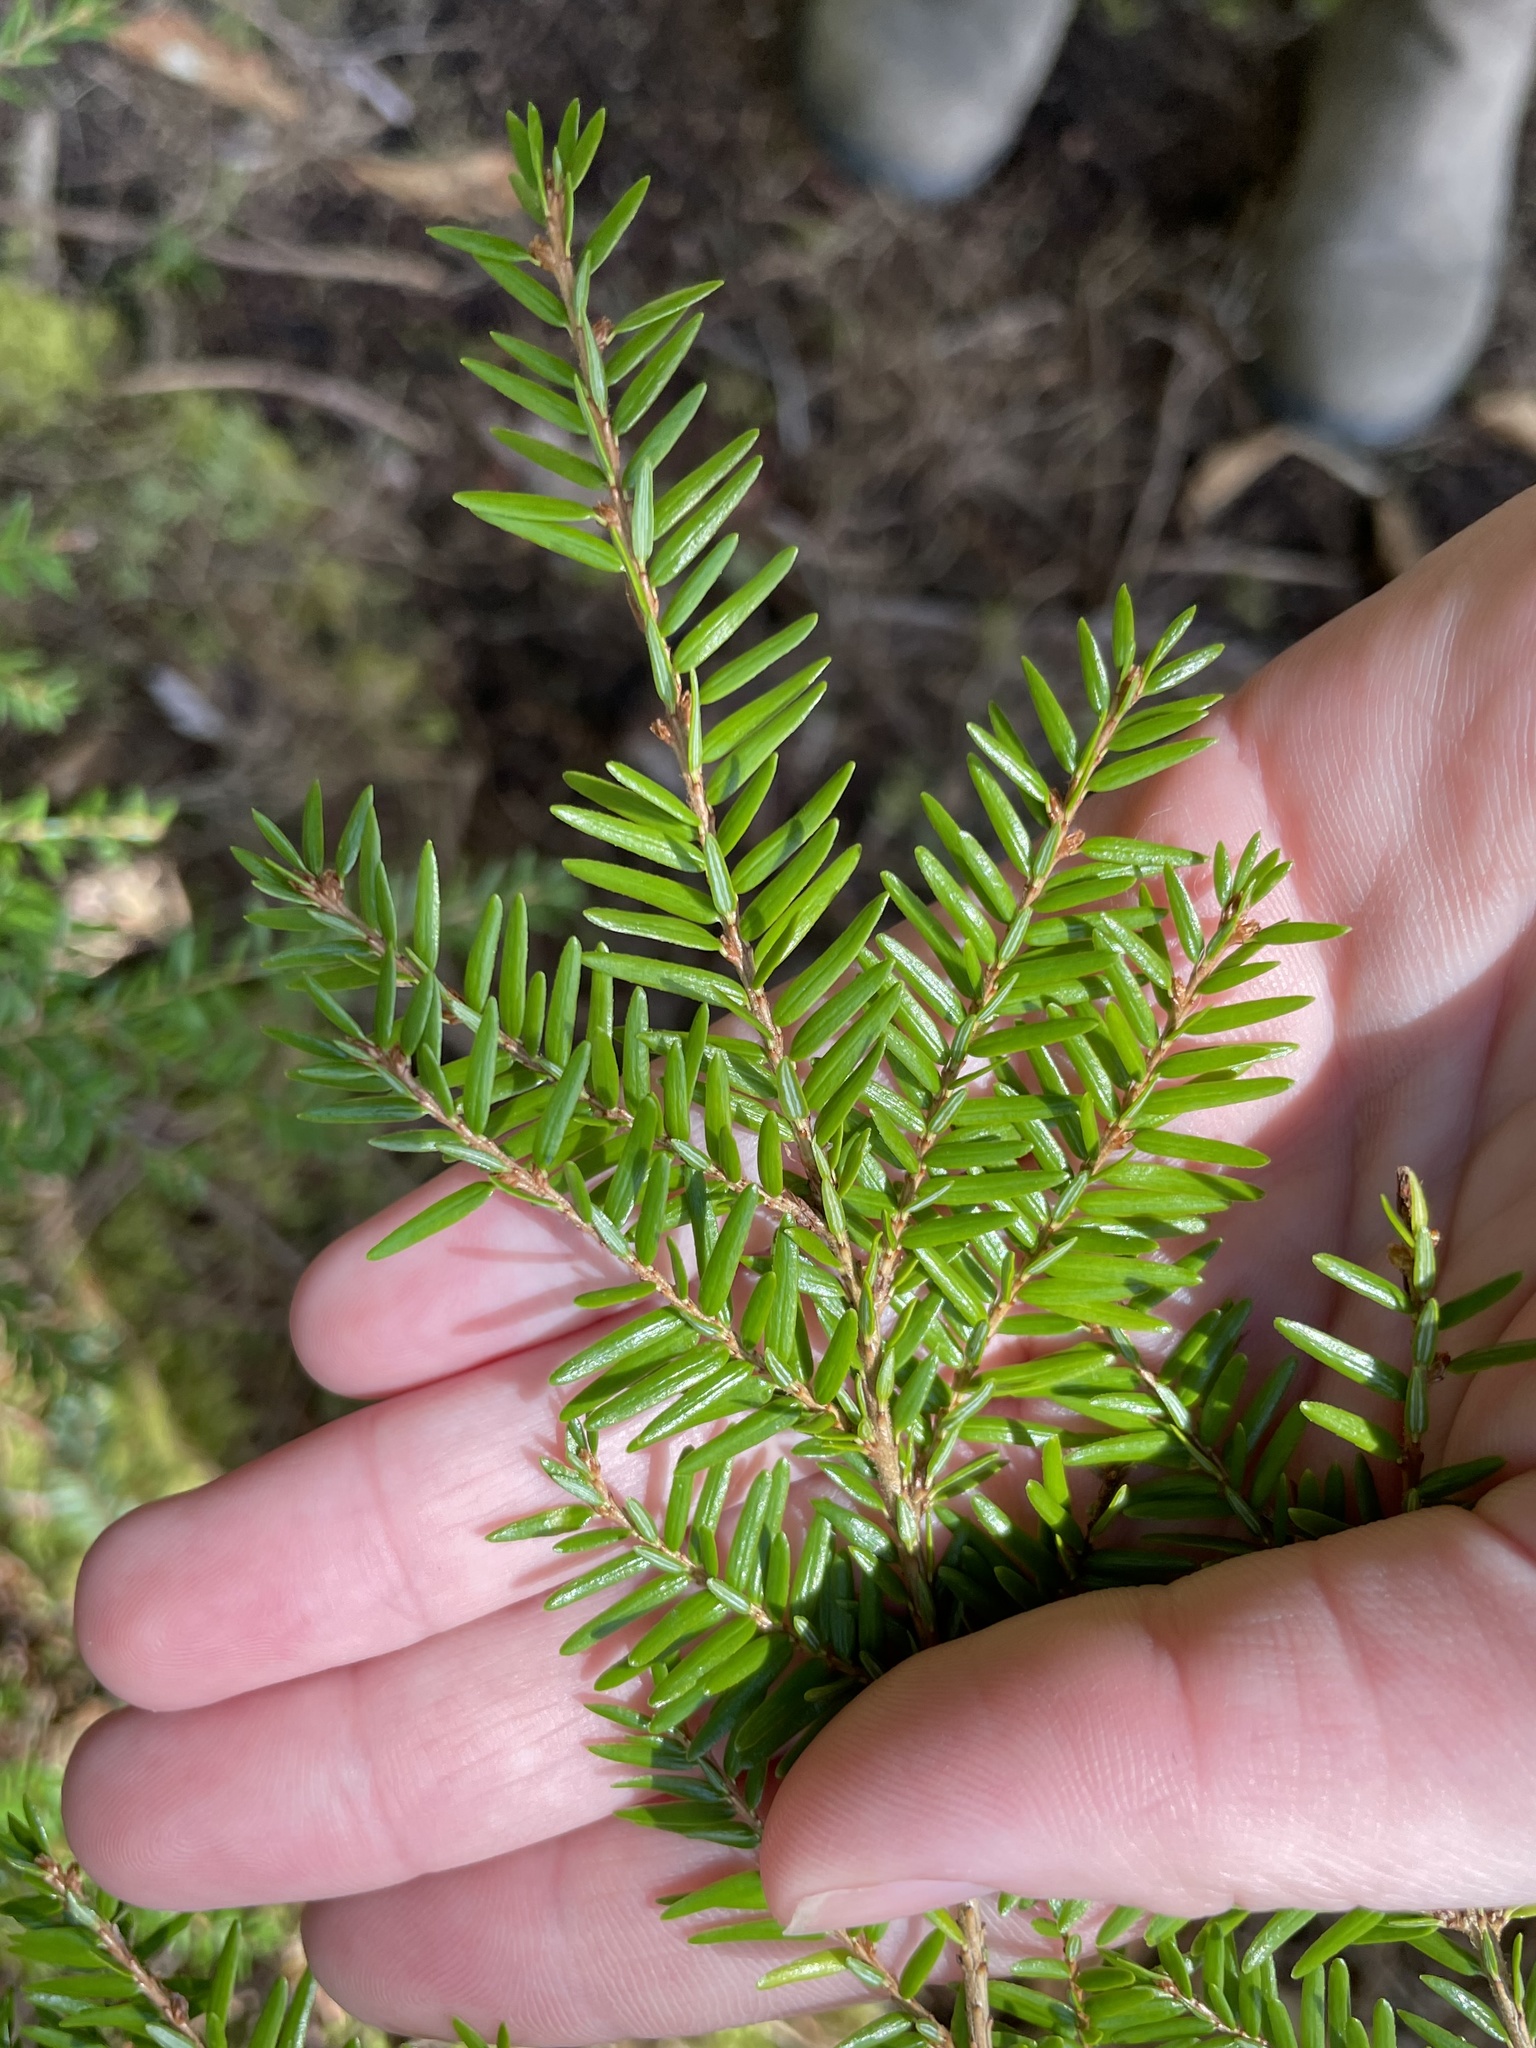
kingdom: Plantae
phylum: Tracheophyta
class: Pinopsida
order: Pinales
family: Pinaceae
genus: Tsuga
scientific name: Tsuga canadensis
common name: Eastern hemlock
